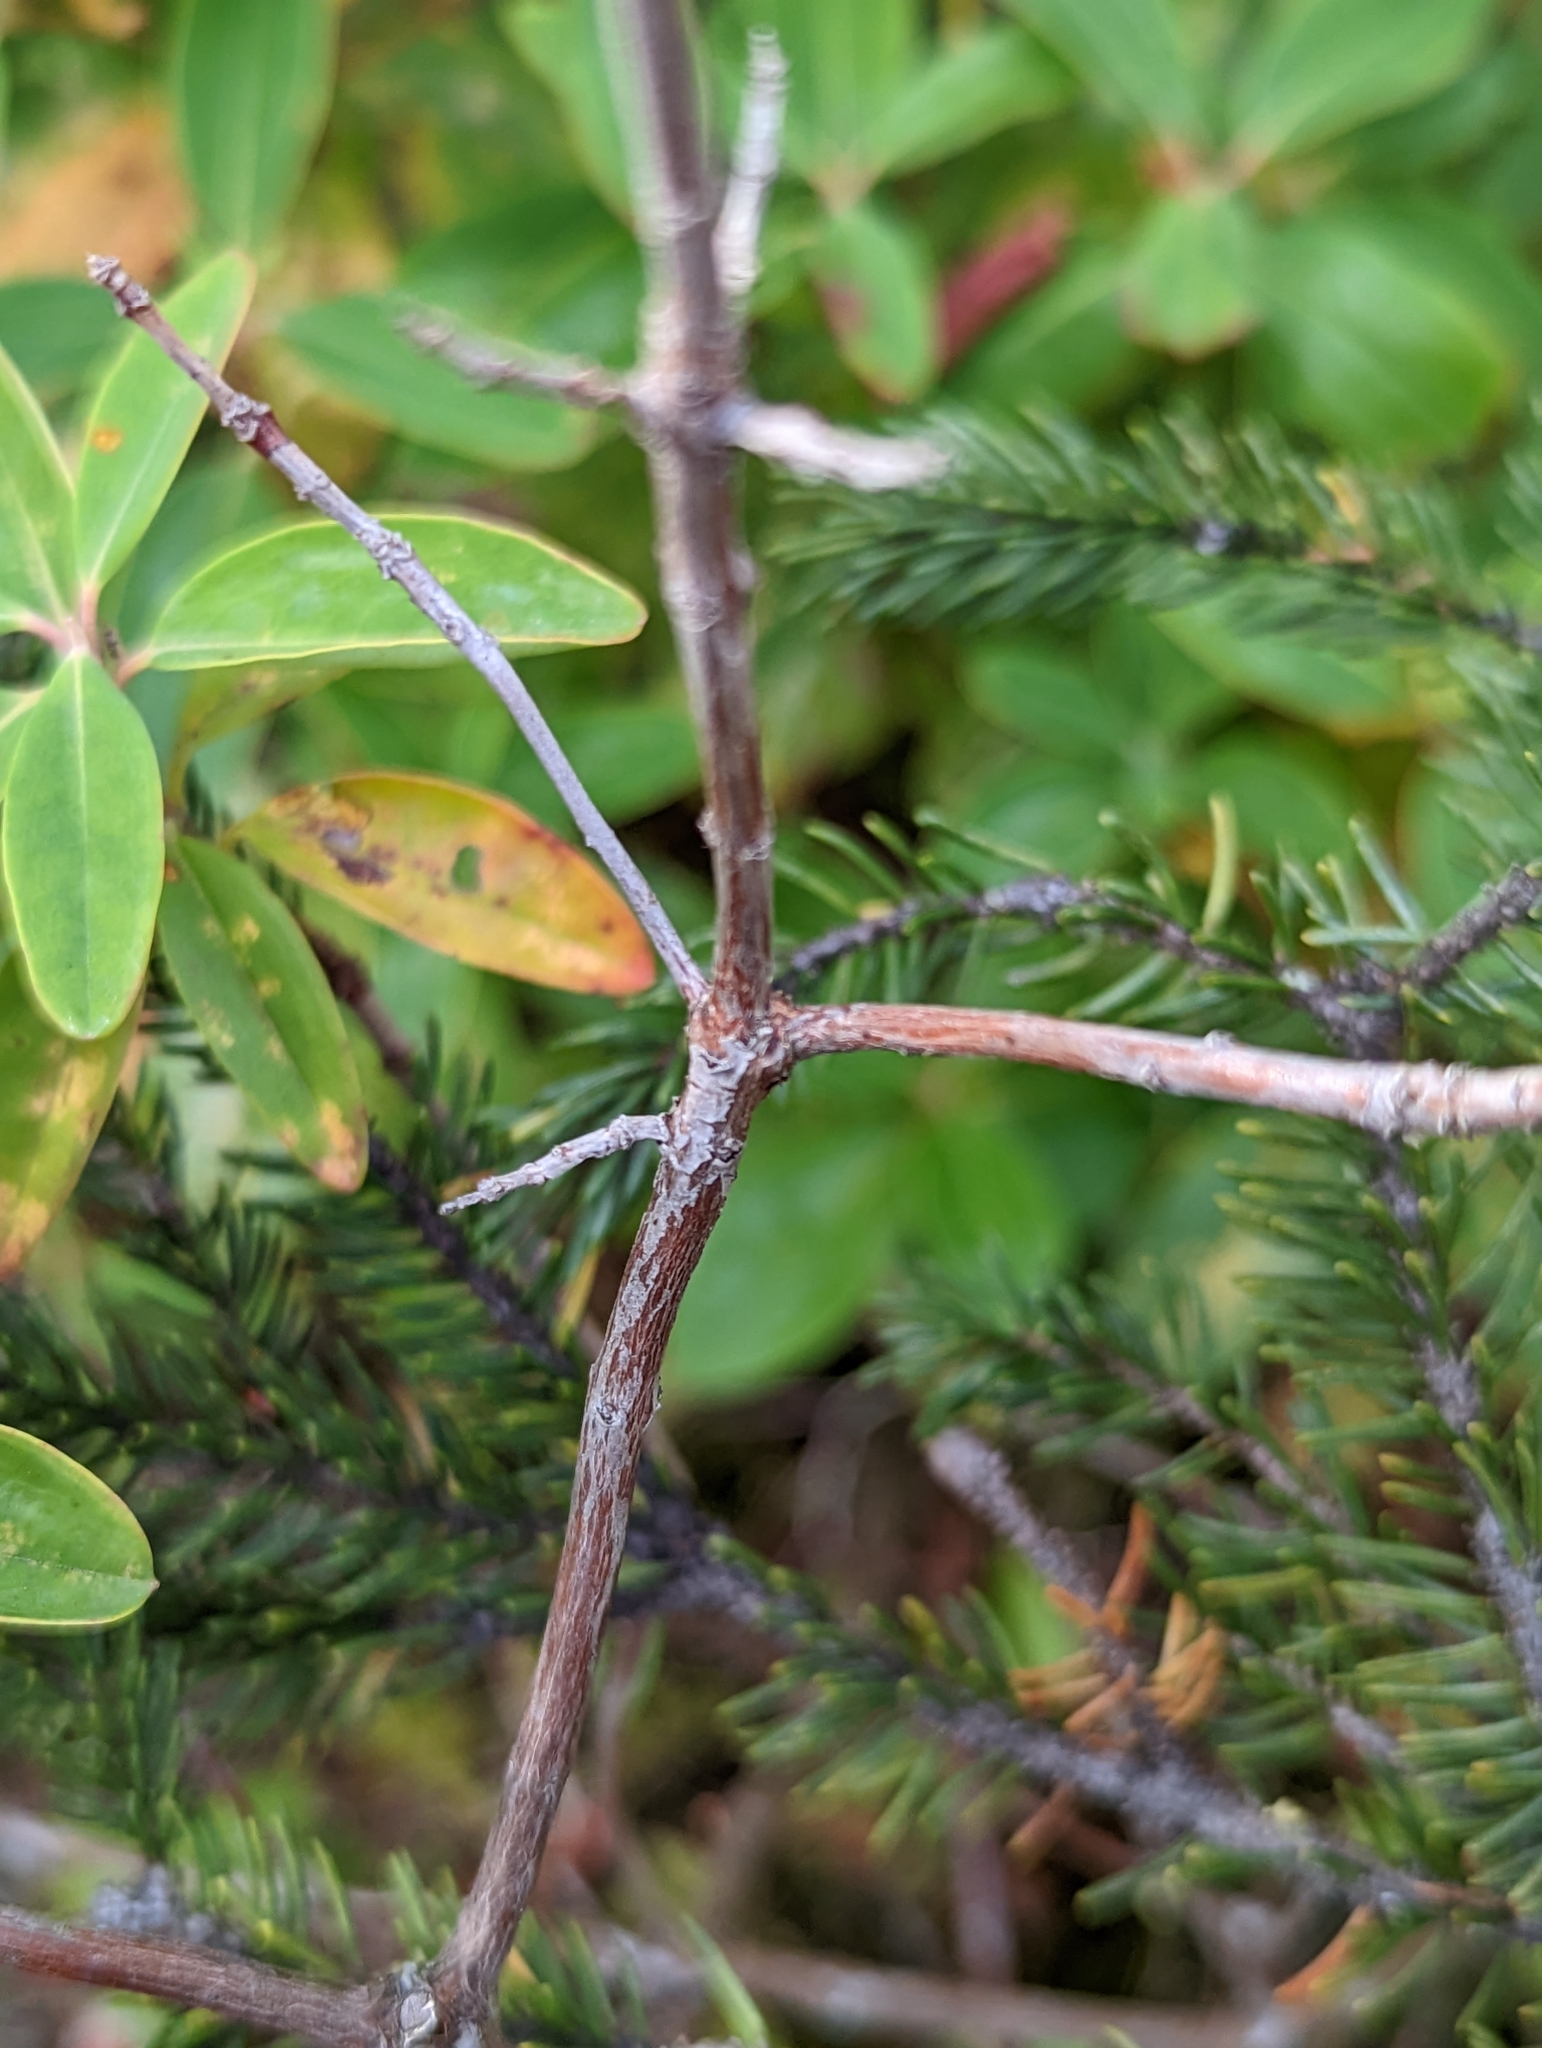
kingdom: Plantae
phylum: Tracheophyta
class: Magnoliopsida
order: Ericales
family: Ericaceae
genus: Kalmia
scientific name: Kalmia angustifolia
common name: Sheep-laurel
